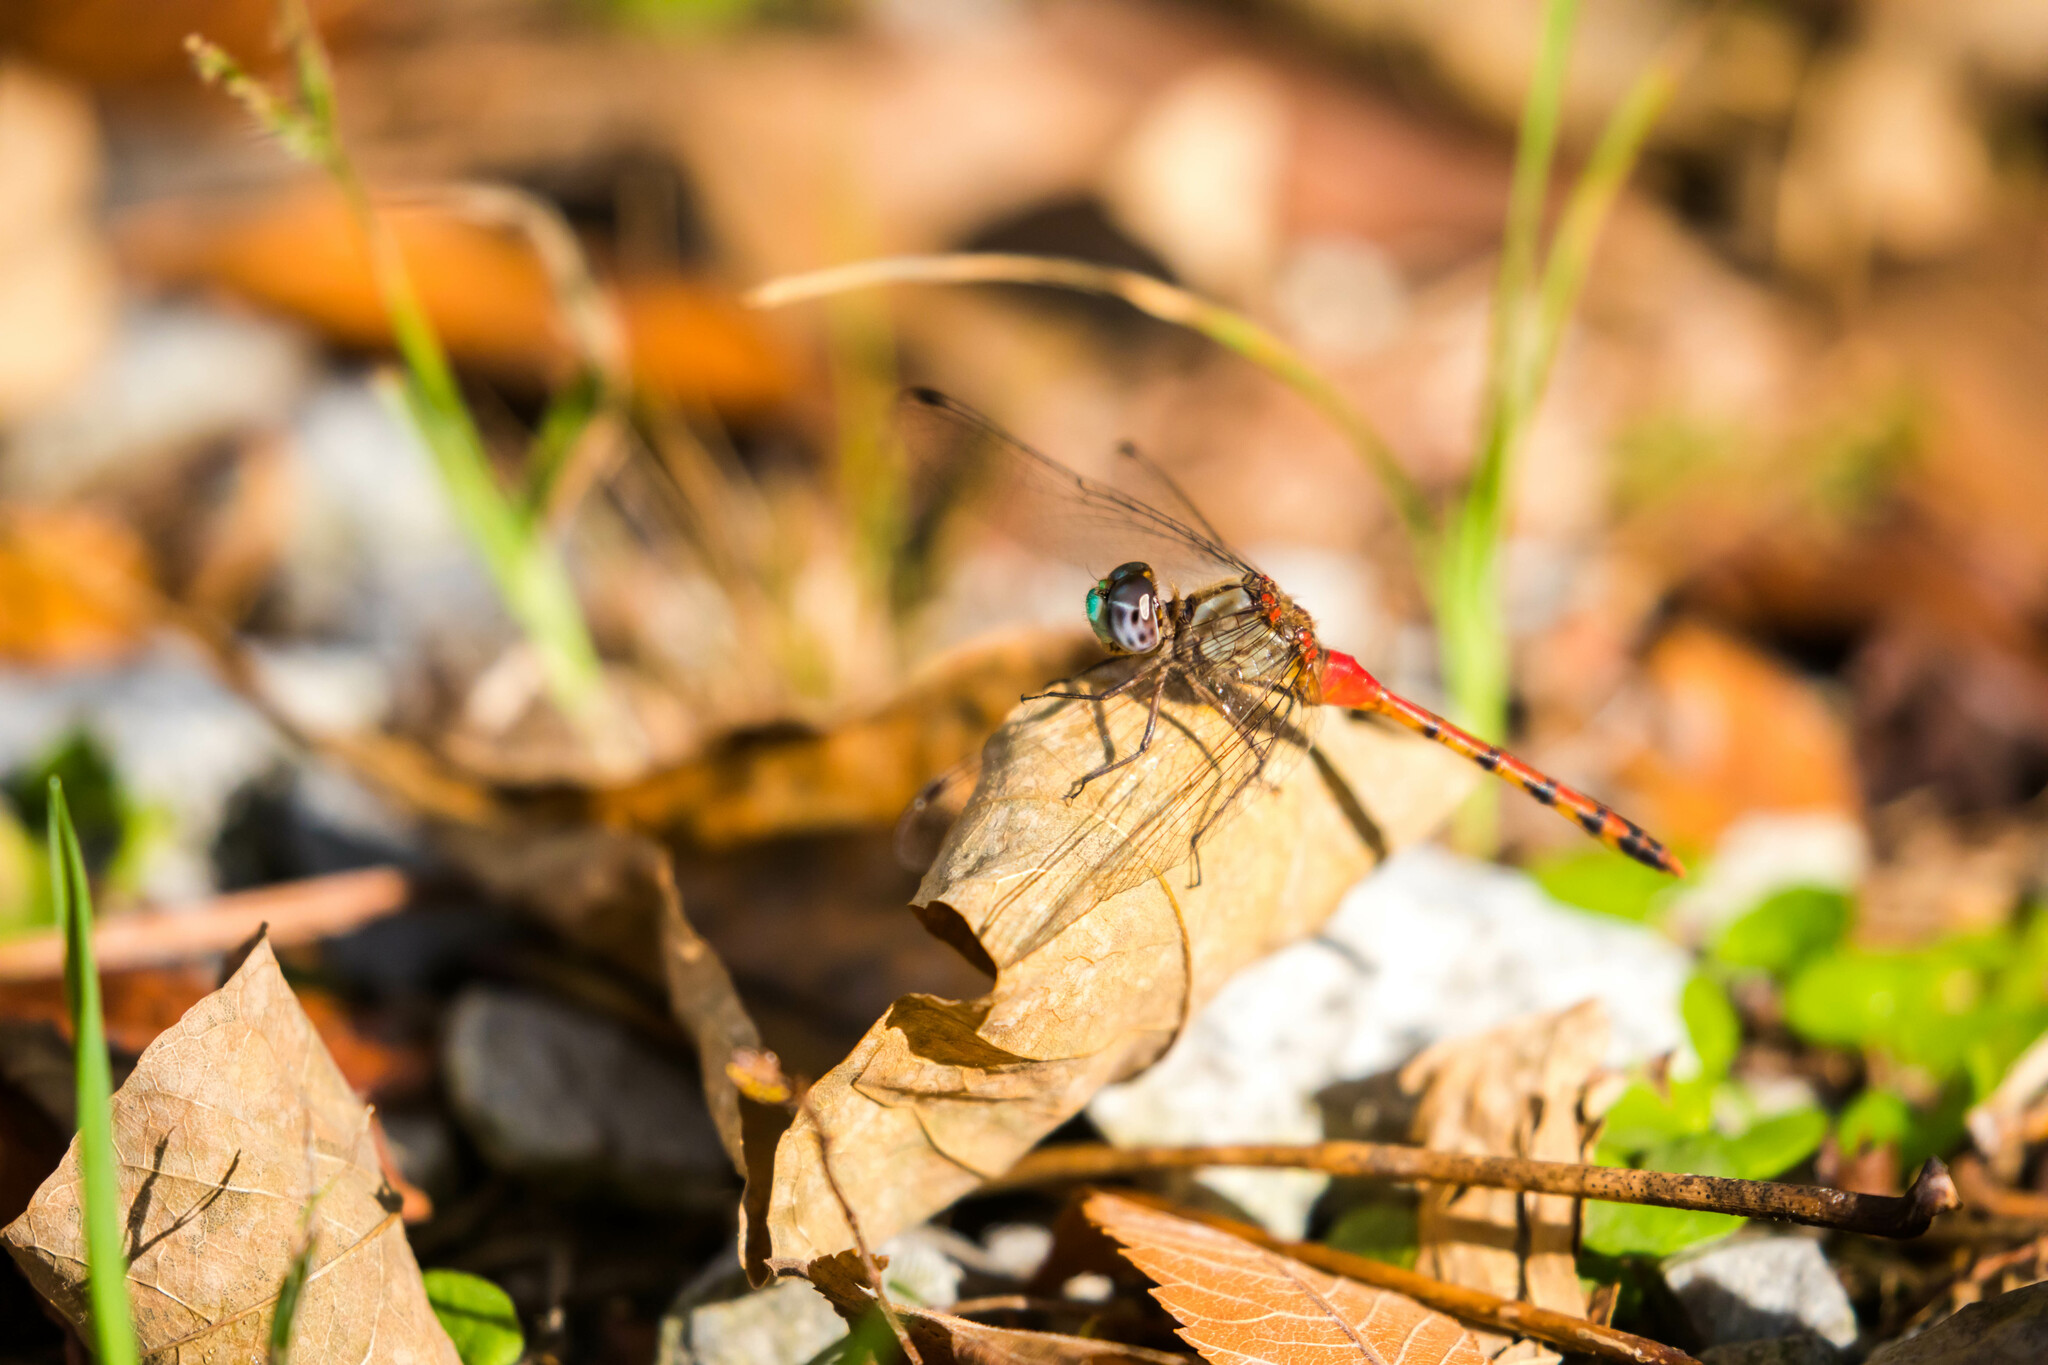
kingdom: Animalia
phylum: Arthropoda
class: Insecta
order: Odonata
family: Libellulidae
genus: Sympetrum
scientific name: Sympetrum ambiguum
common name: Blue-faced meadowhawk
